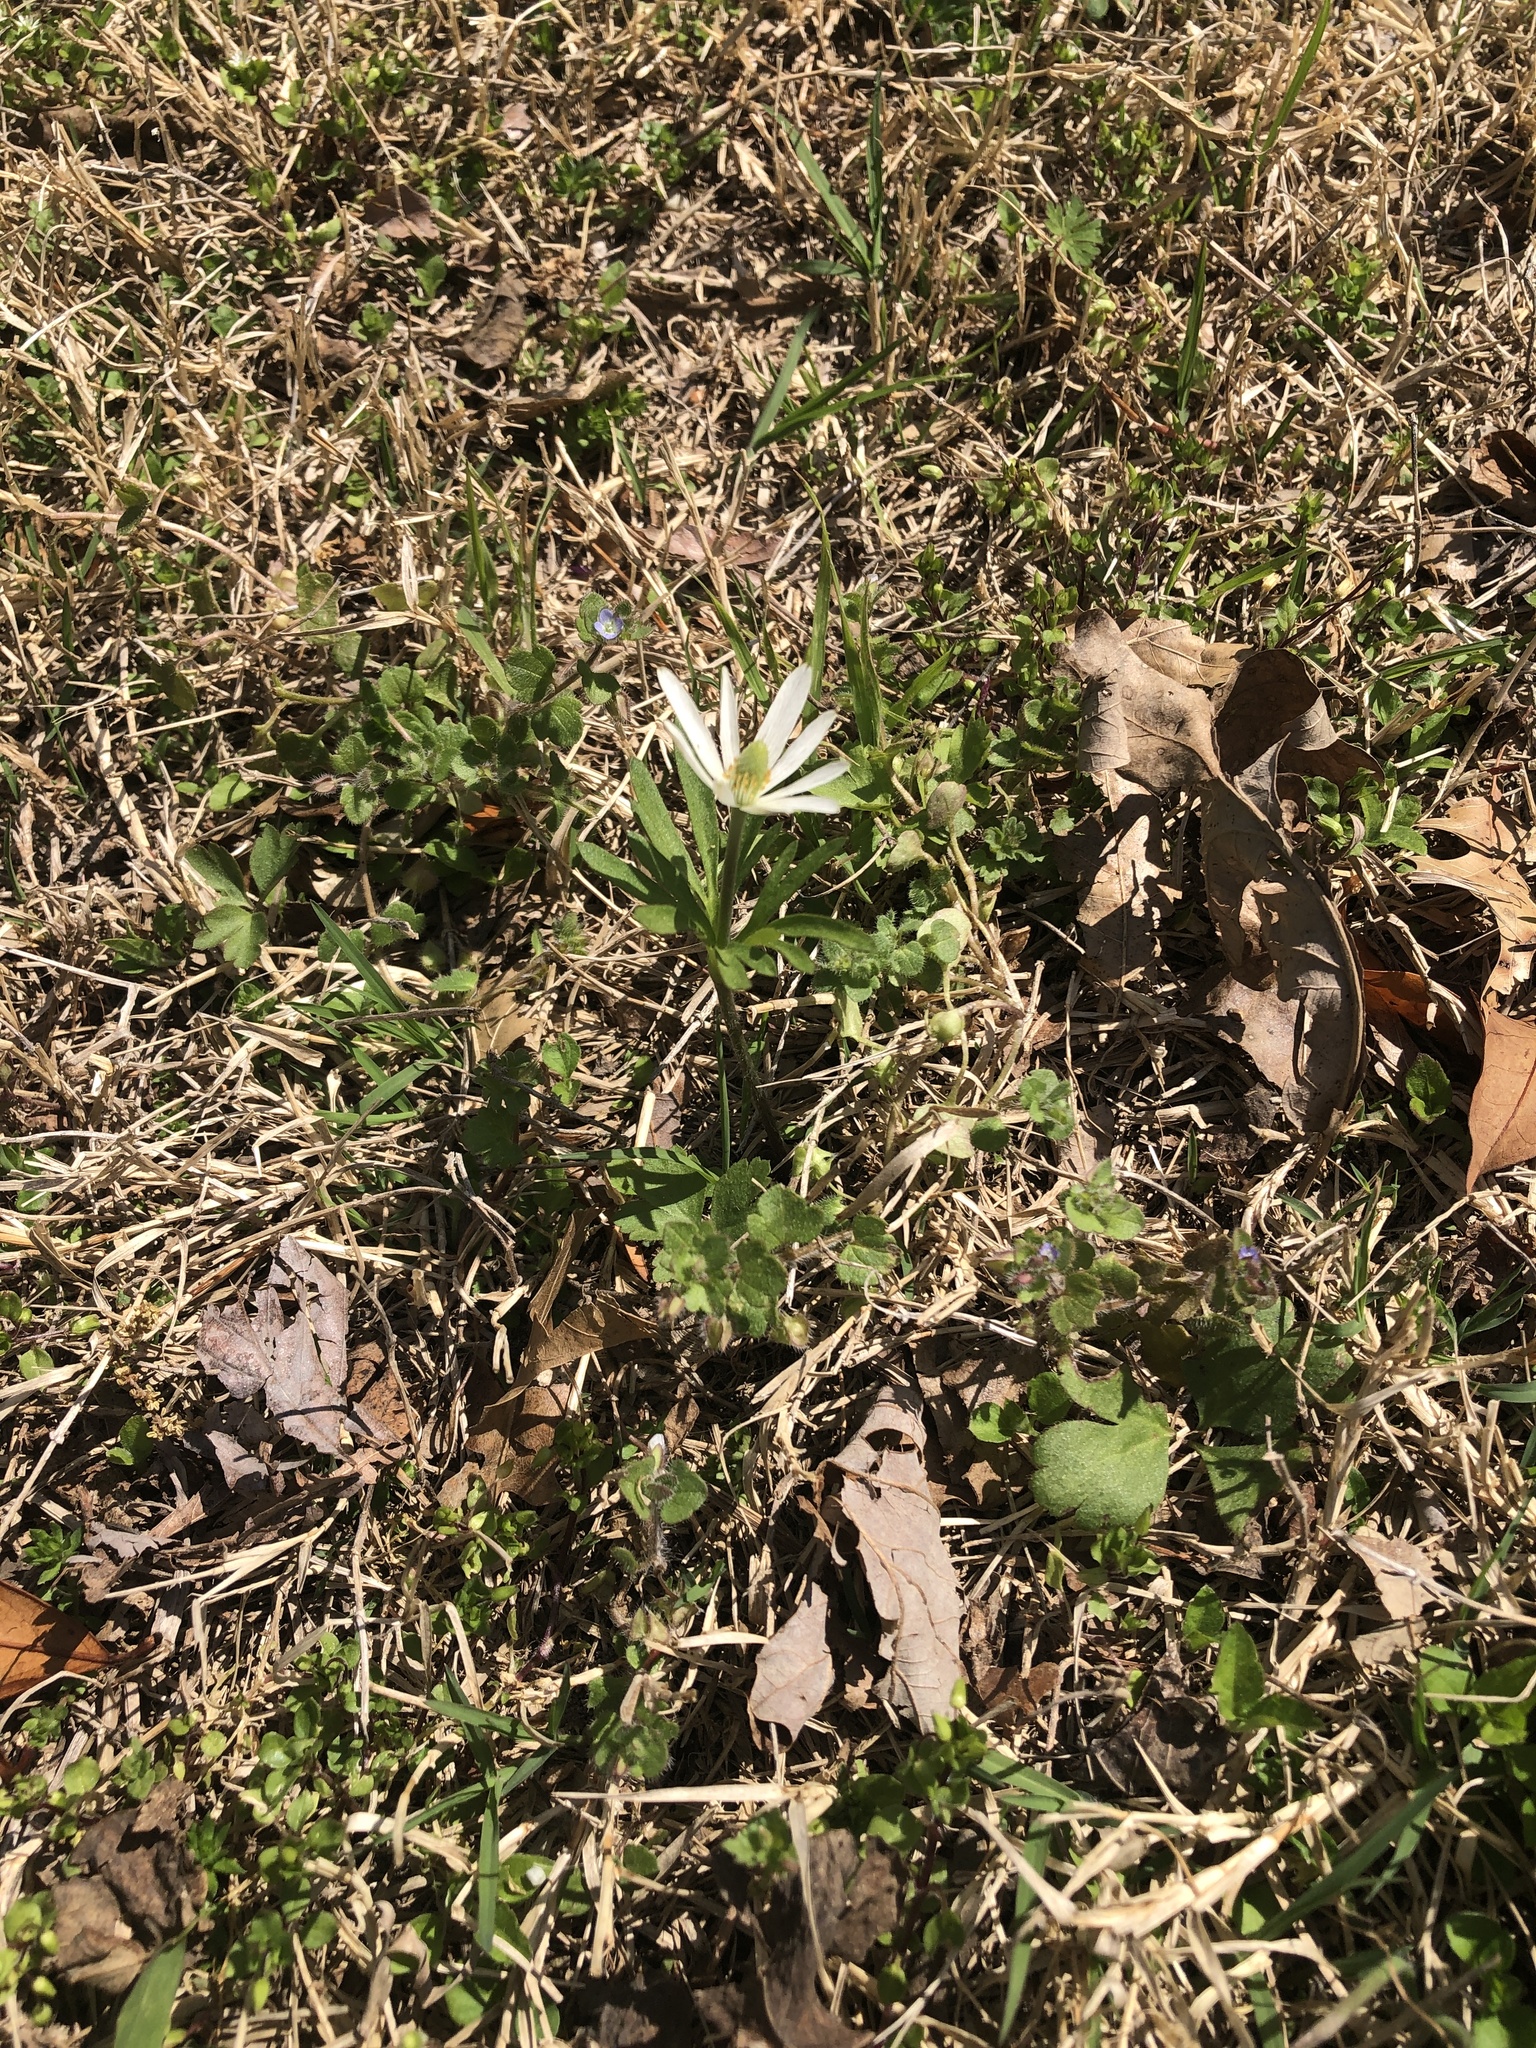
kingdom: Plantae
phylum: Tracheophyta
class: Magnoliopsida
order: Ranunculales
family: Ranunculaceae
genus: Anemone
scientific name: Anemone berlandieri
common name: Ten-petal anemone
